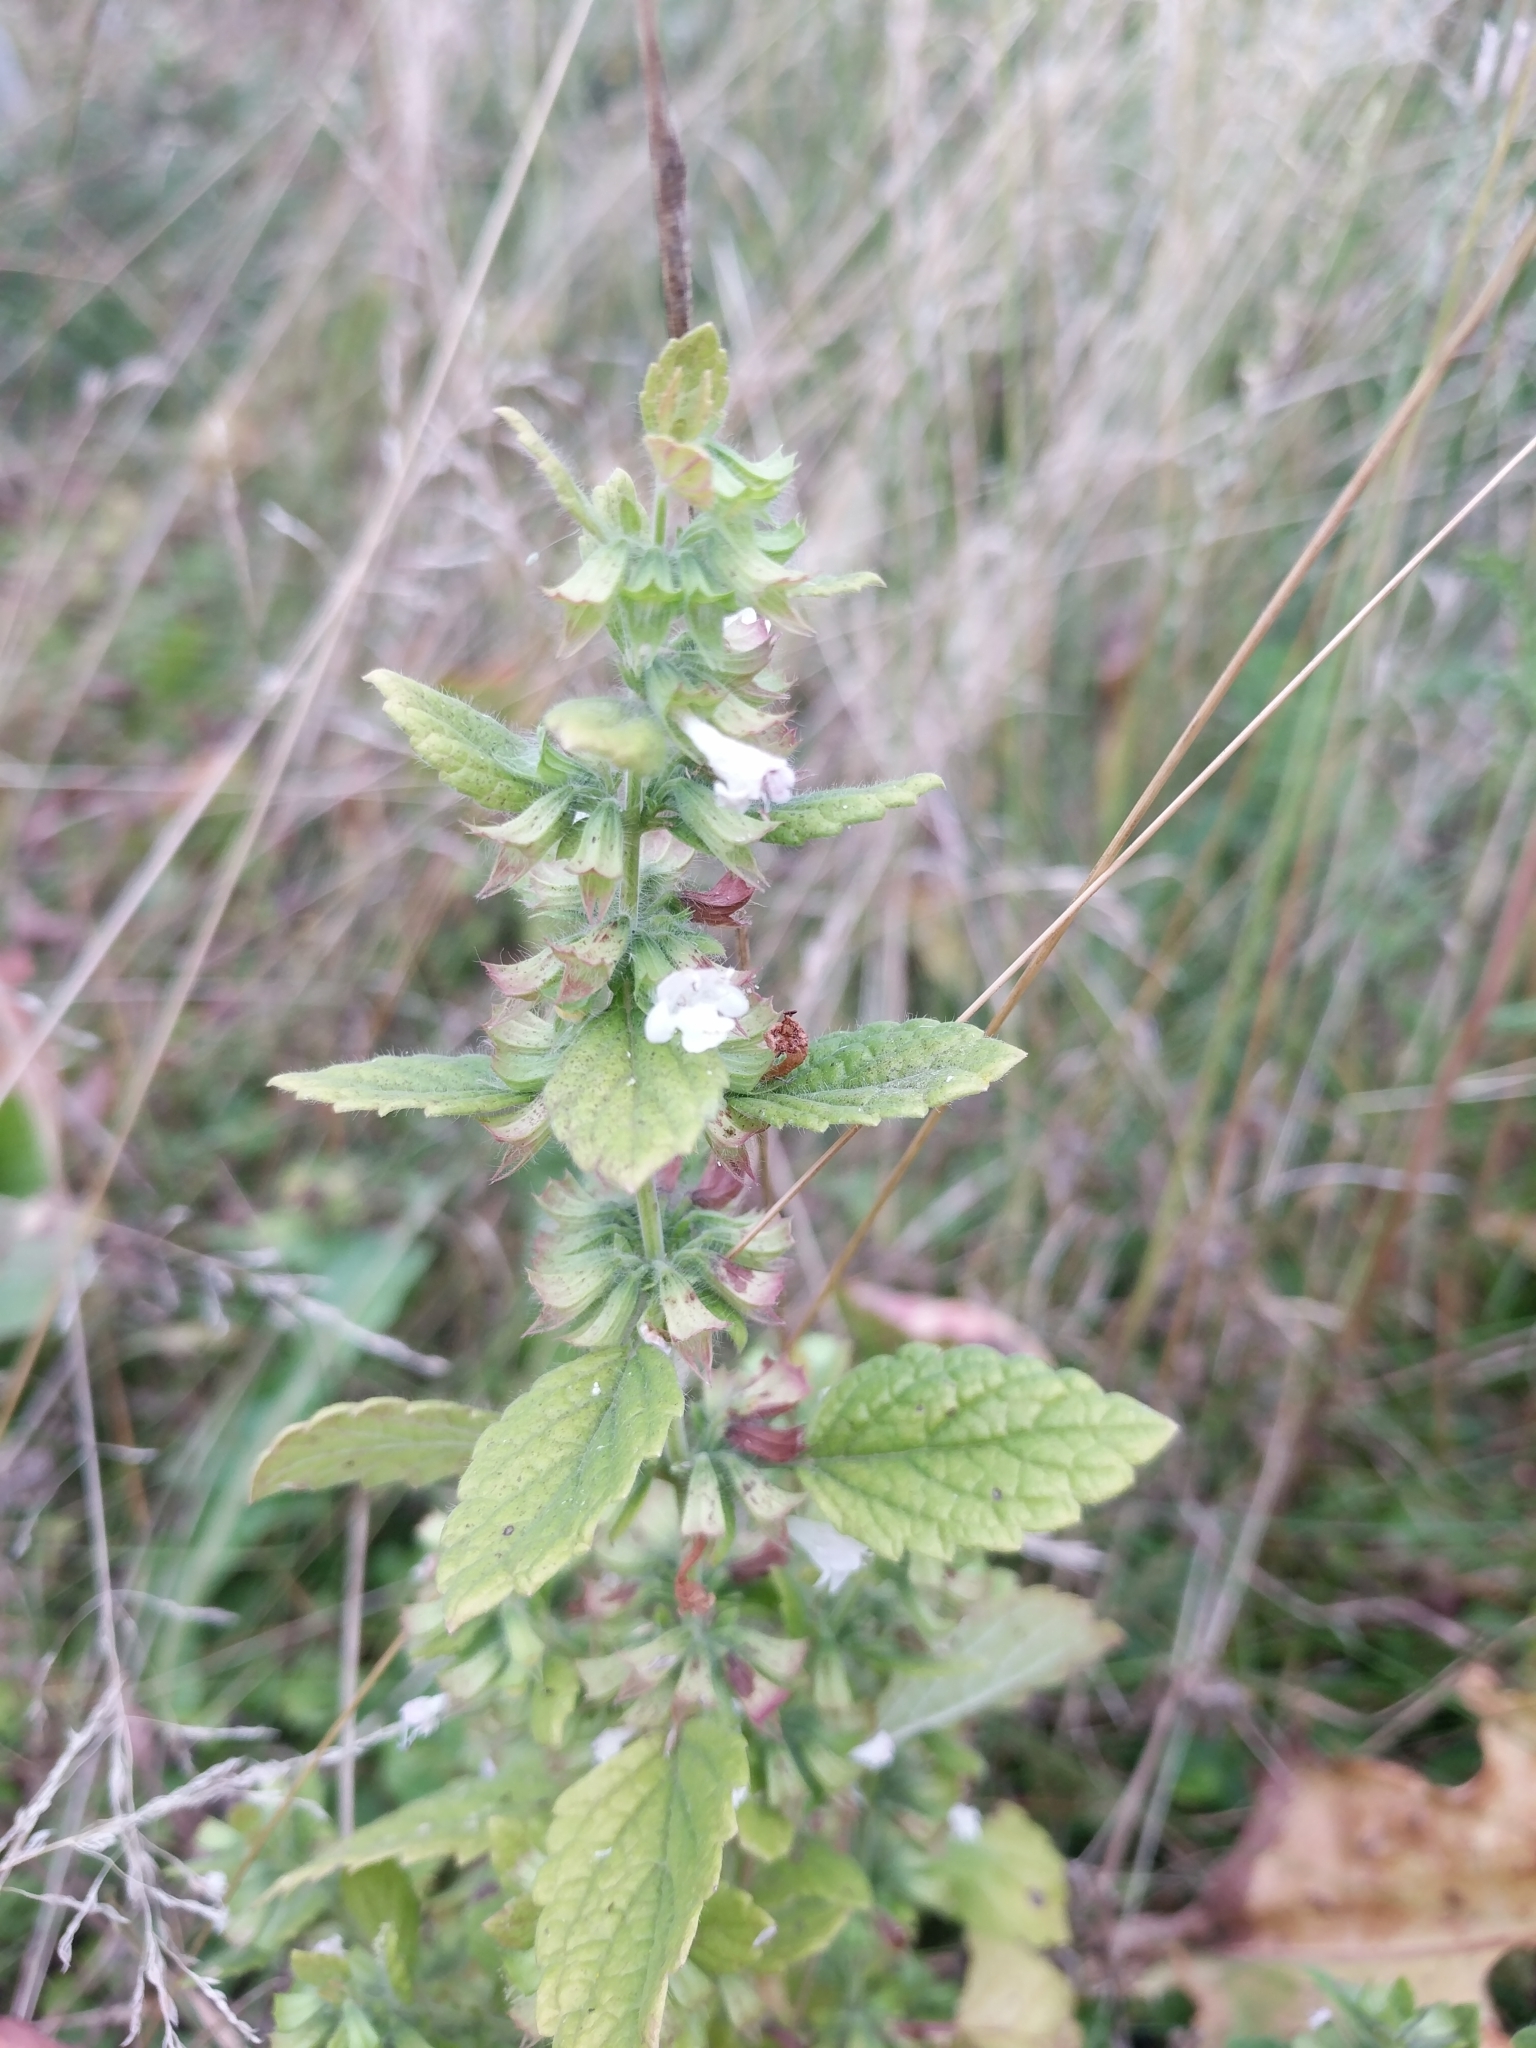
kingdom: Plantae
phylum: Tracheophyta
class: Magnoliopsida
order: Lamiales
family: Lamiaceae
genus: Melissa
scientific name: Melissa officinalis
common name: Balm
